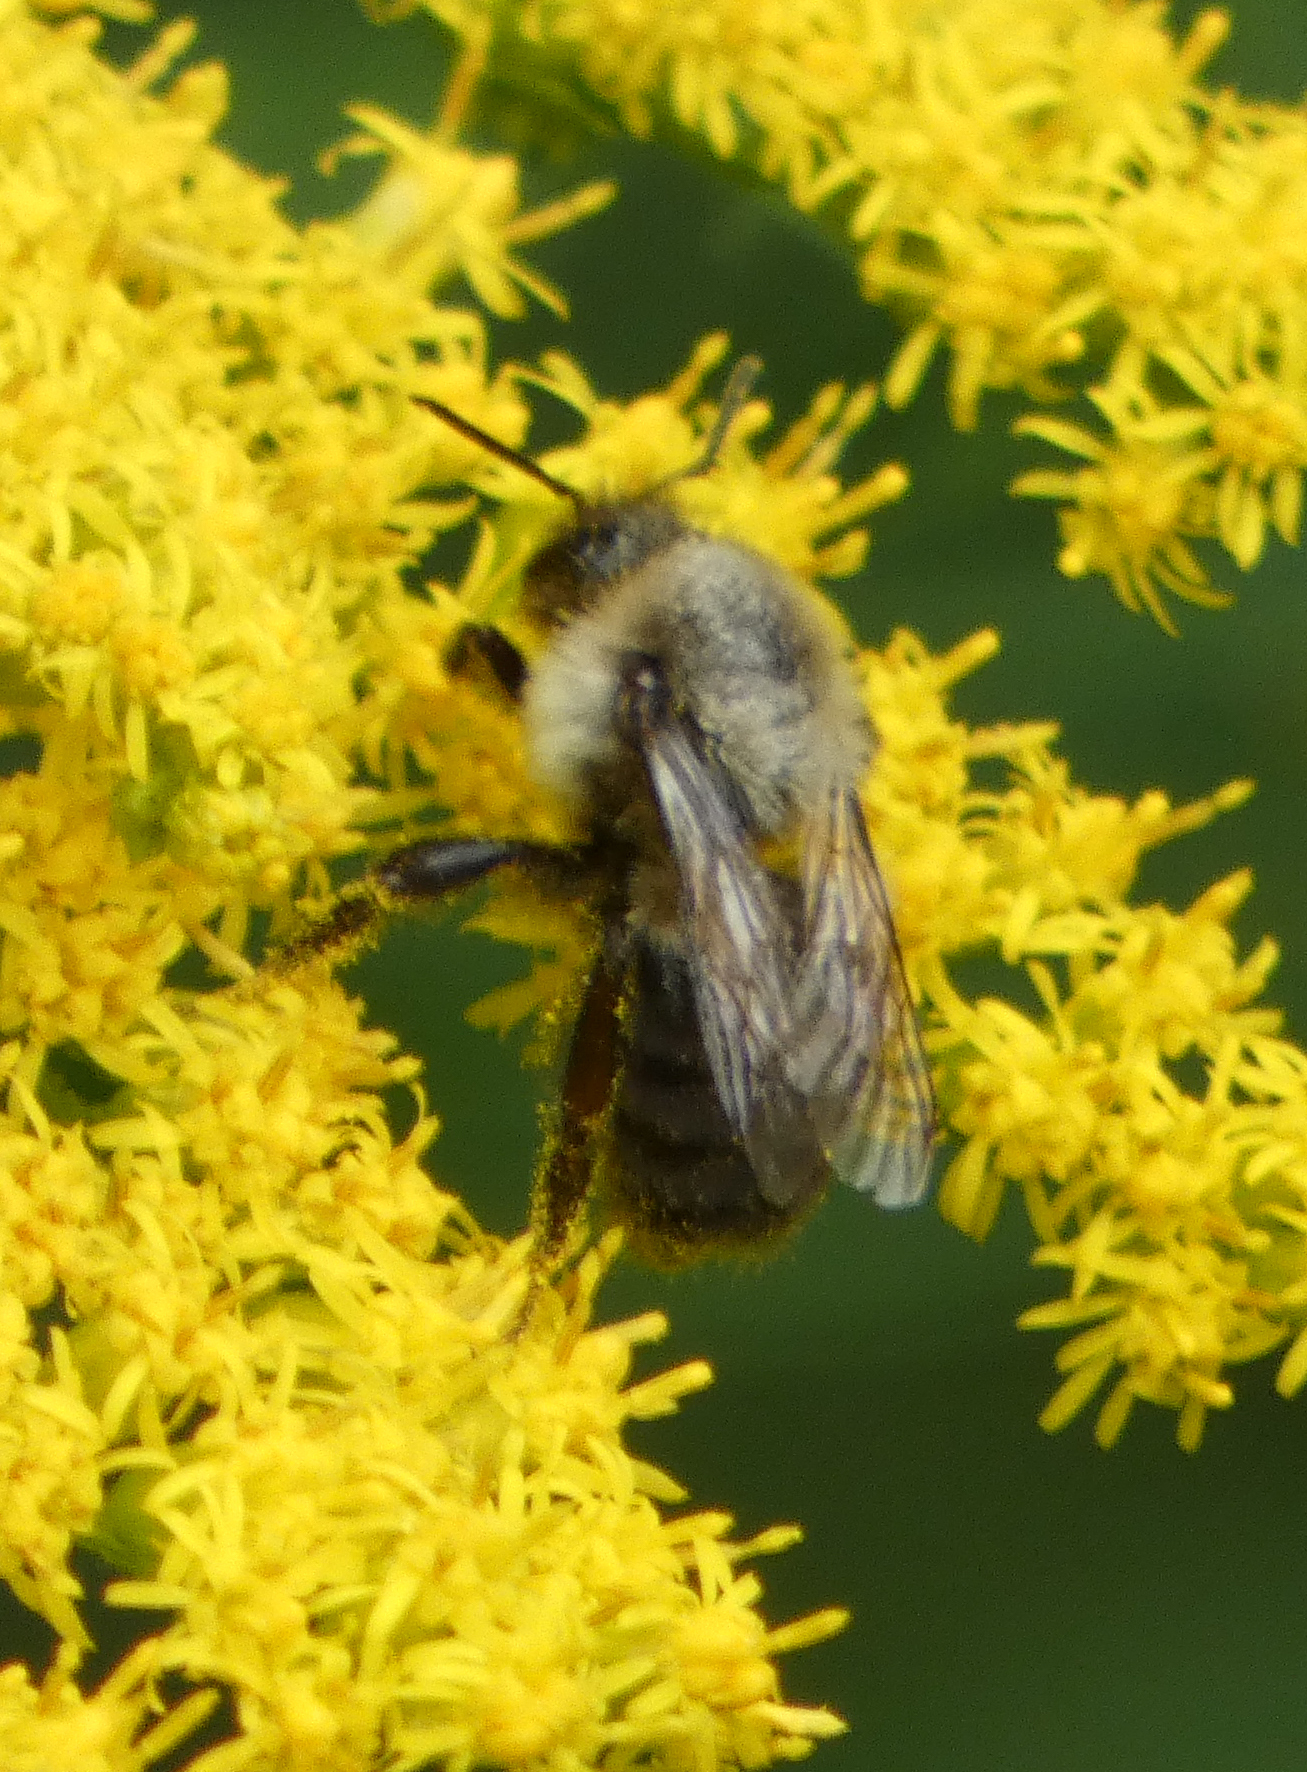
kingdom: Animalia
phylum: Arthropoda
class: Insecta
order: Hymenoptera
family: Apidae
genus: Bombus
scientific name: Bombus impatiens
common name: Common eastern bumble bee
